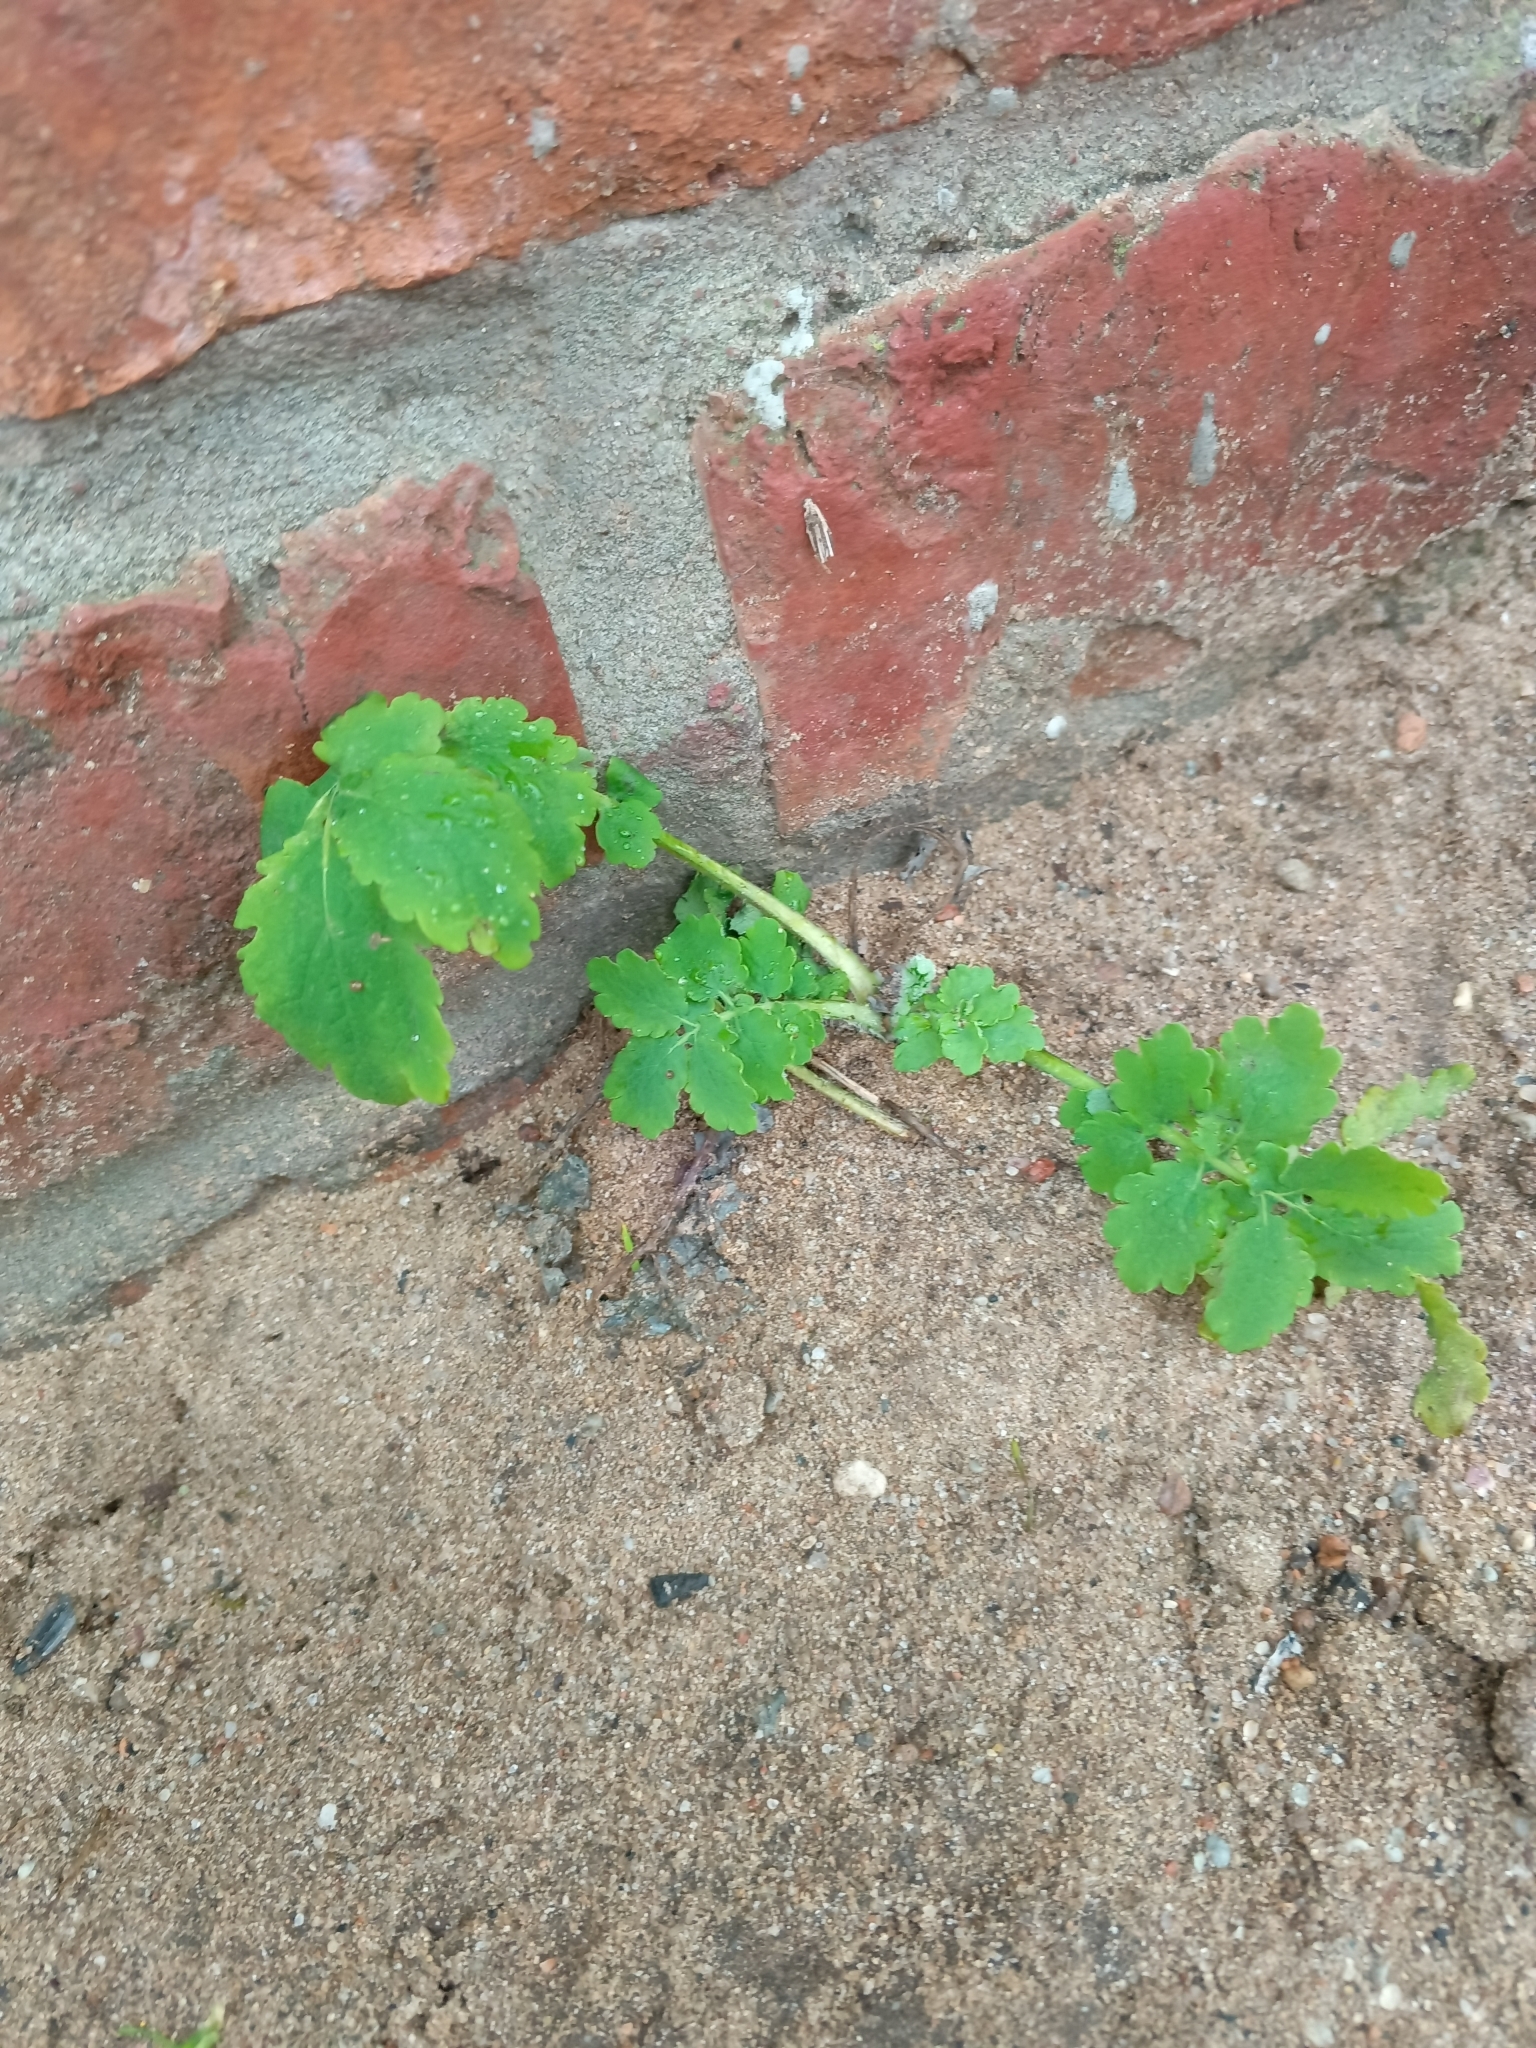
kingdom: Plantae
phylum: Tracheophyta
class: Magnoliopsida
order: Ranunculales
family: Papaveraceae
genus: Chelidonium
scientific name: Chelidonium majus
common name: Greater celandine
